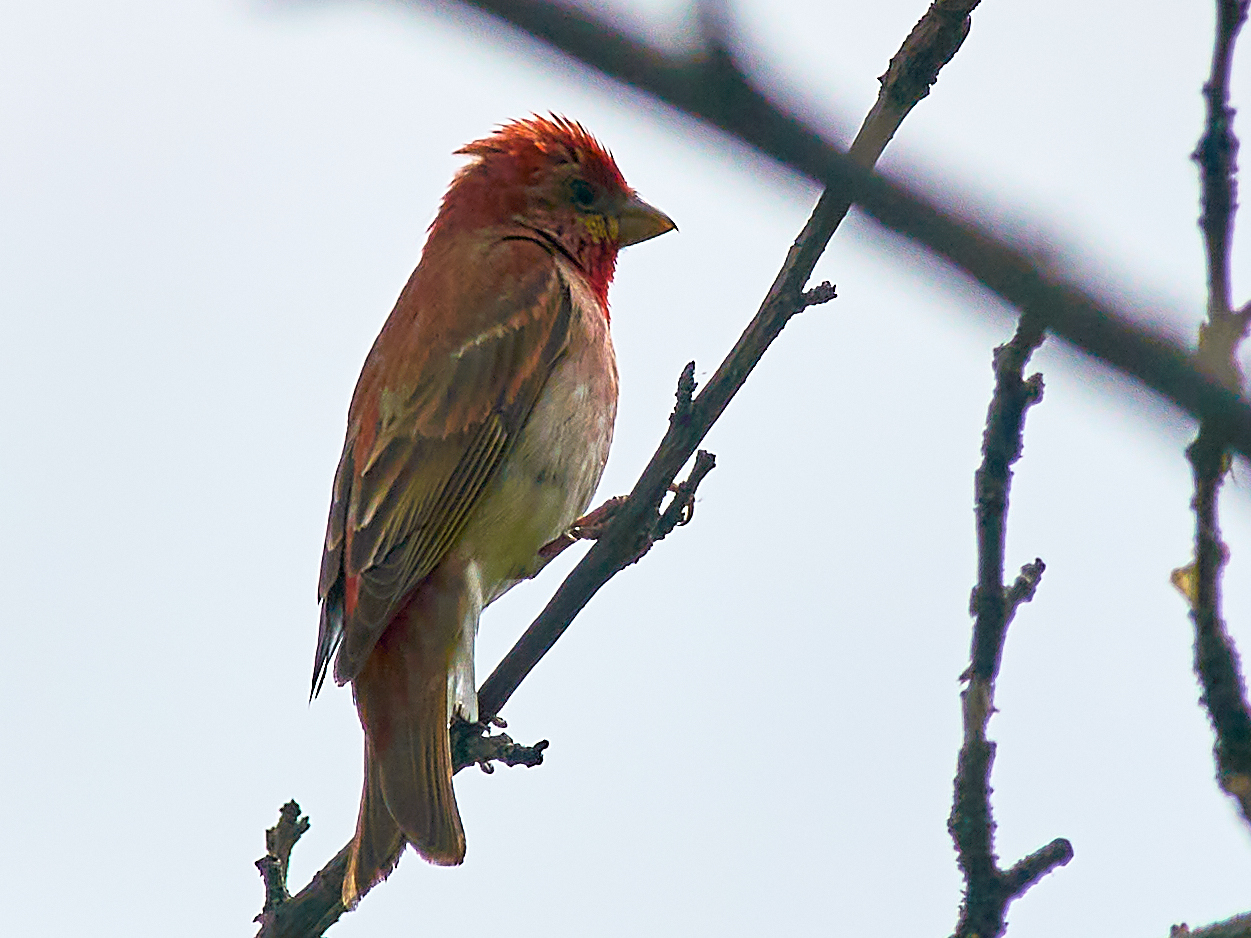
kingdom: Animalia
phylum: Chordata
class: Aves
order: Passeriformes
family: Fringillidae
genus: Carpodacus
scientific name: Carpodacus erythrinus
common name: Common rosefinch
